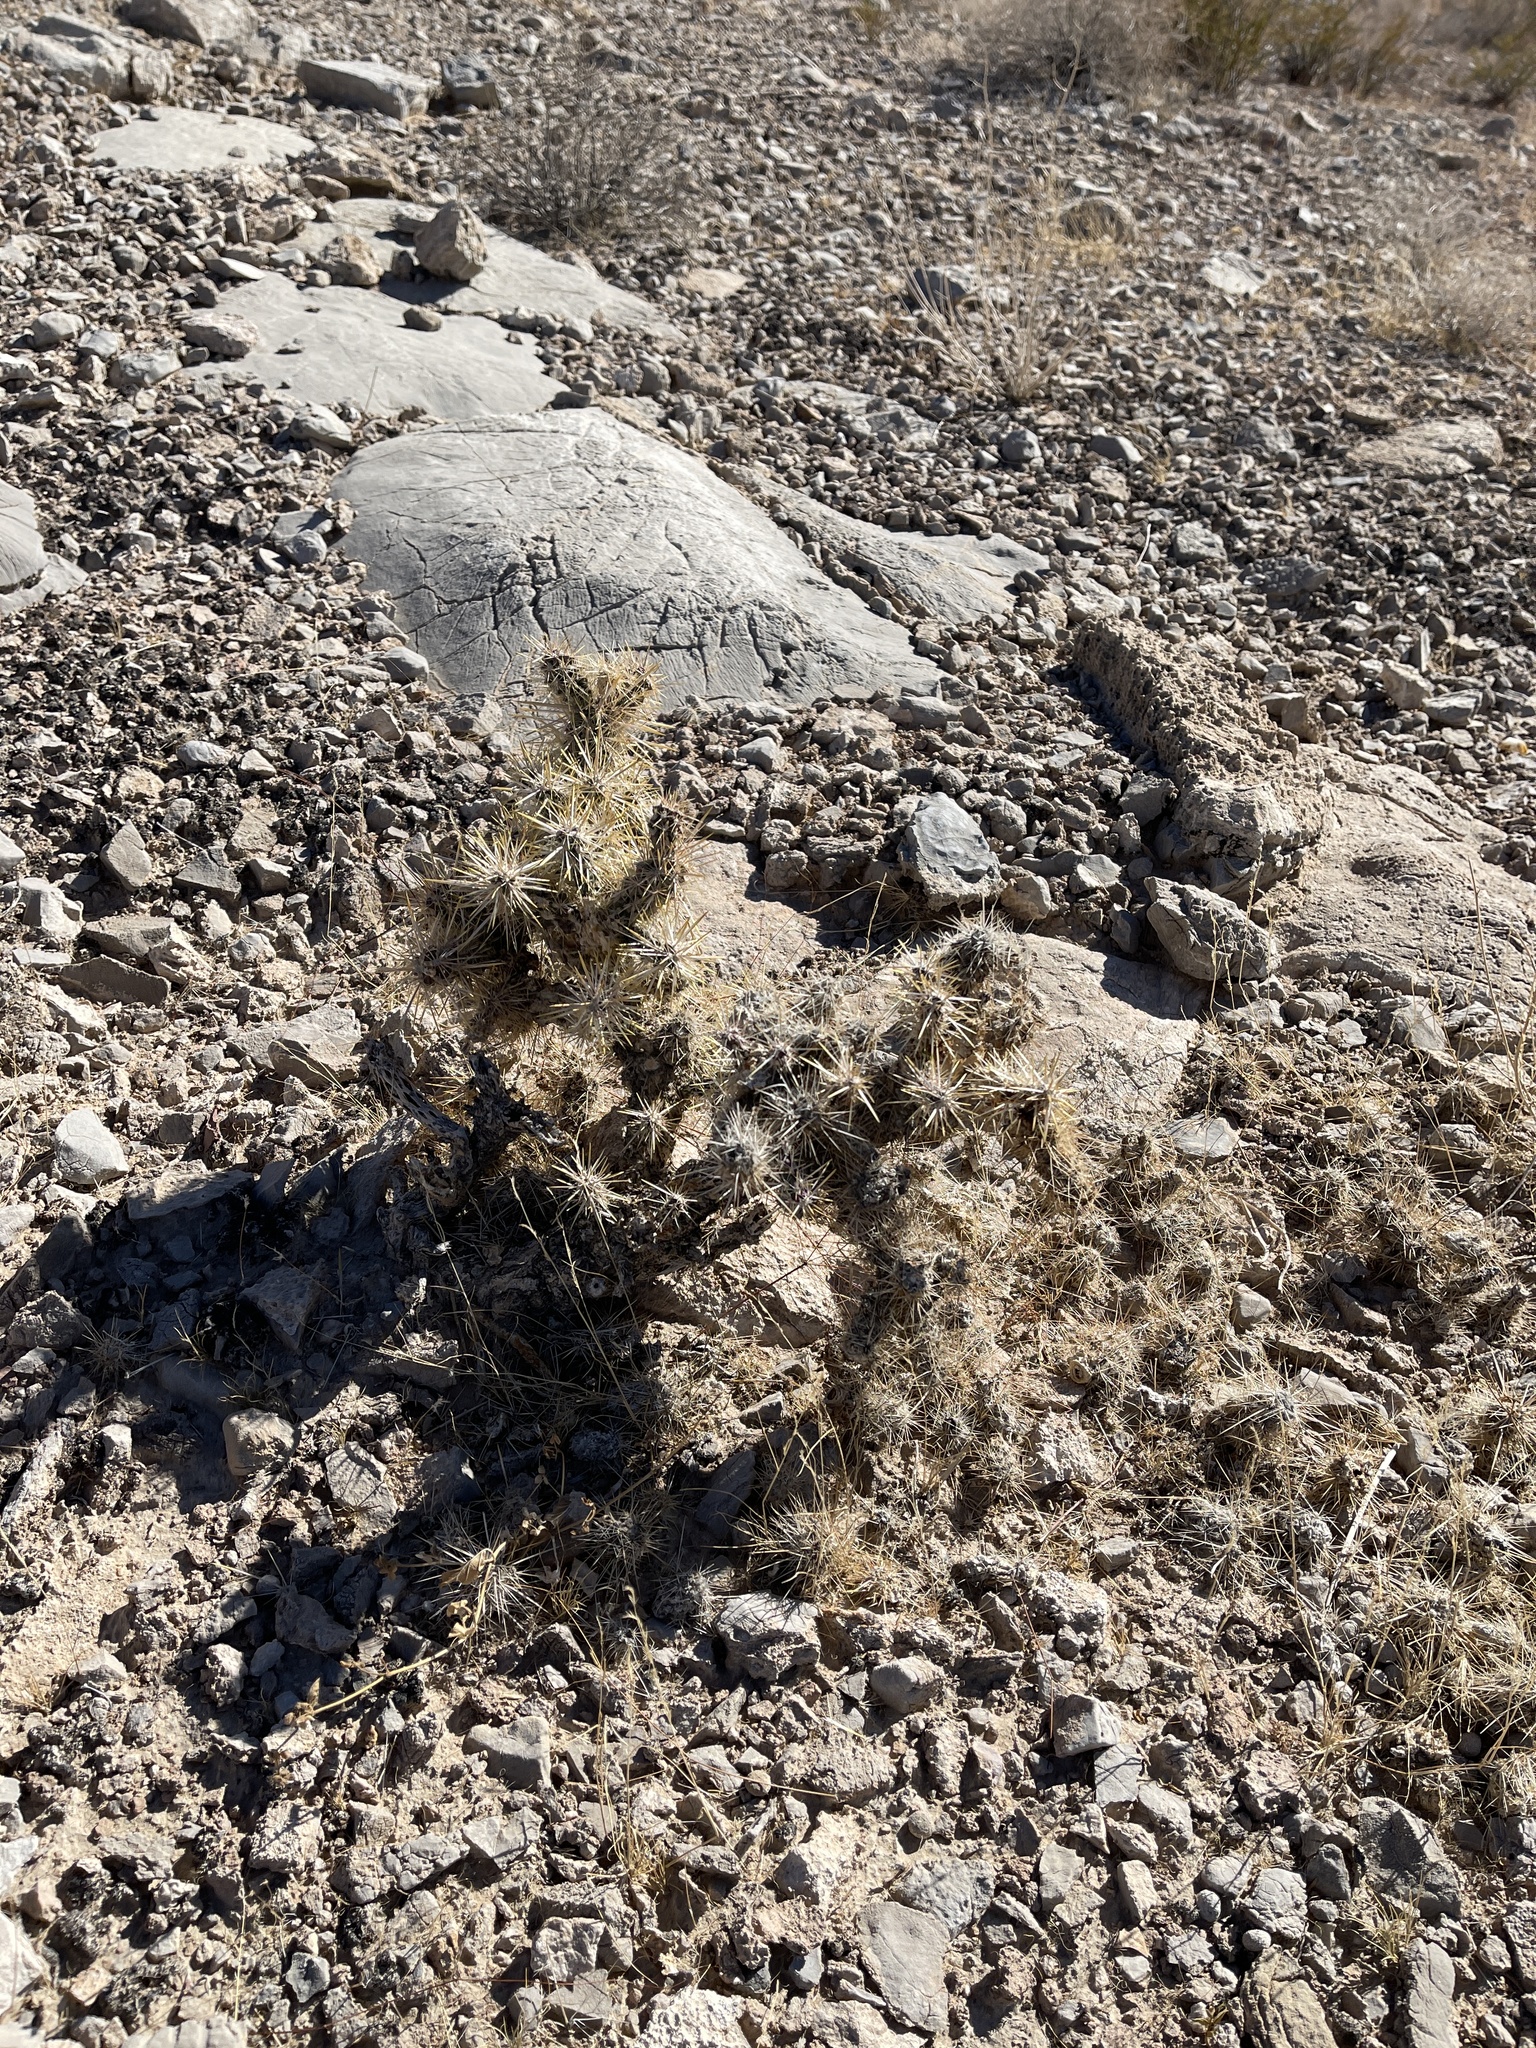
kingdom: Plantae
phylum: Tracheophyta
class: Magnoliopsida
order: Caryophyllales
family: Cactaceae
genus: Cylindropuntia
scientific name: Cylindropuntia echinocarpa
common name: Ground cholla
